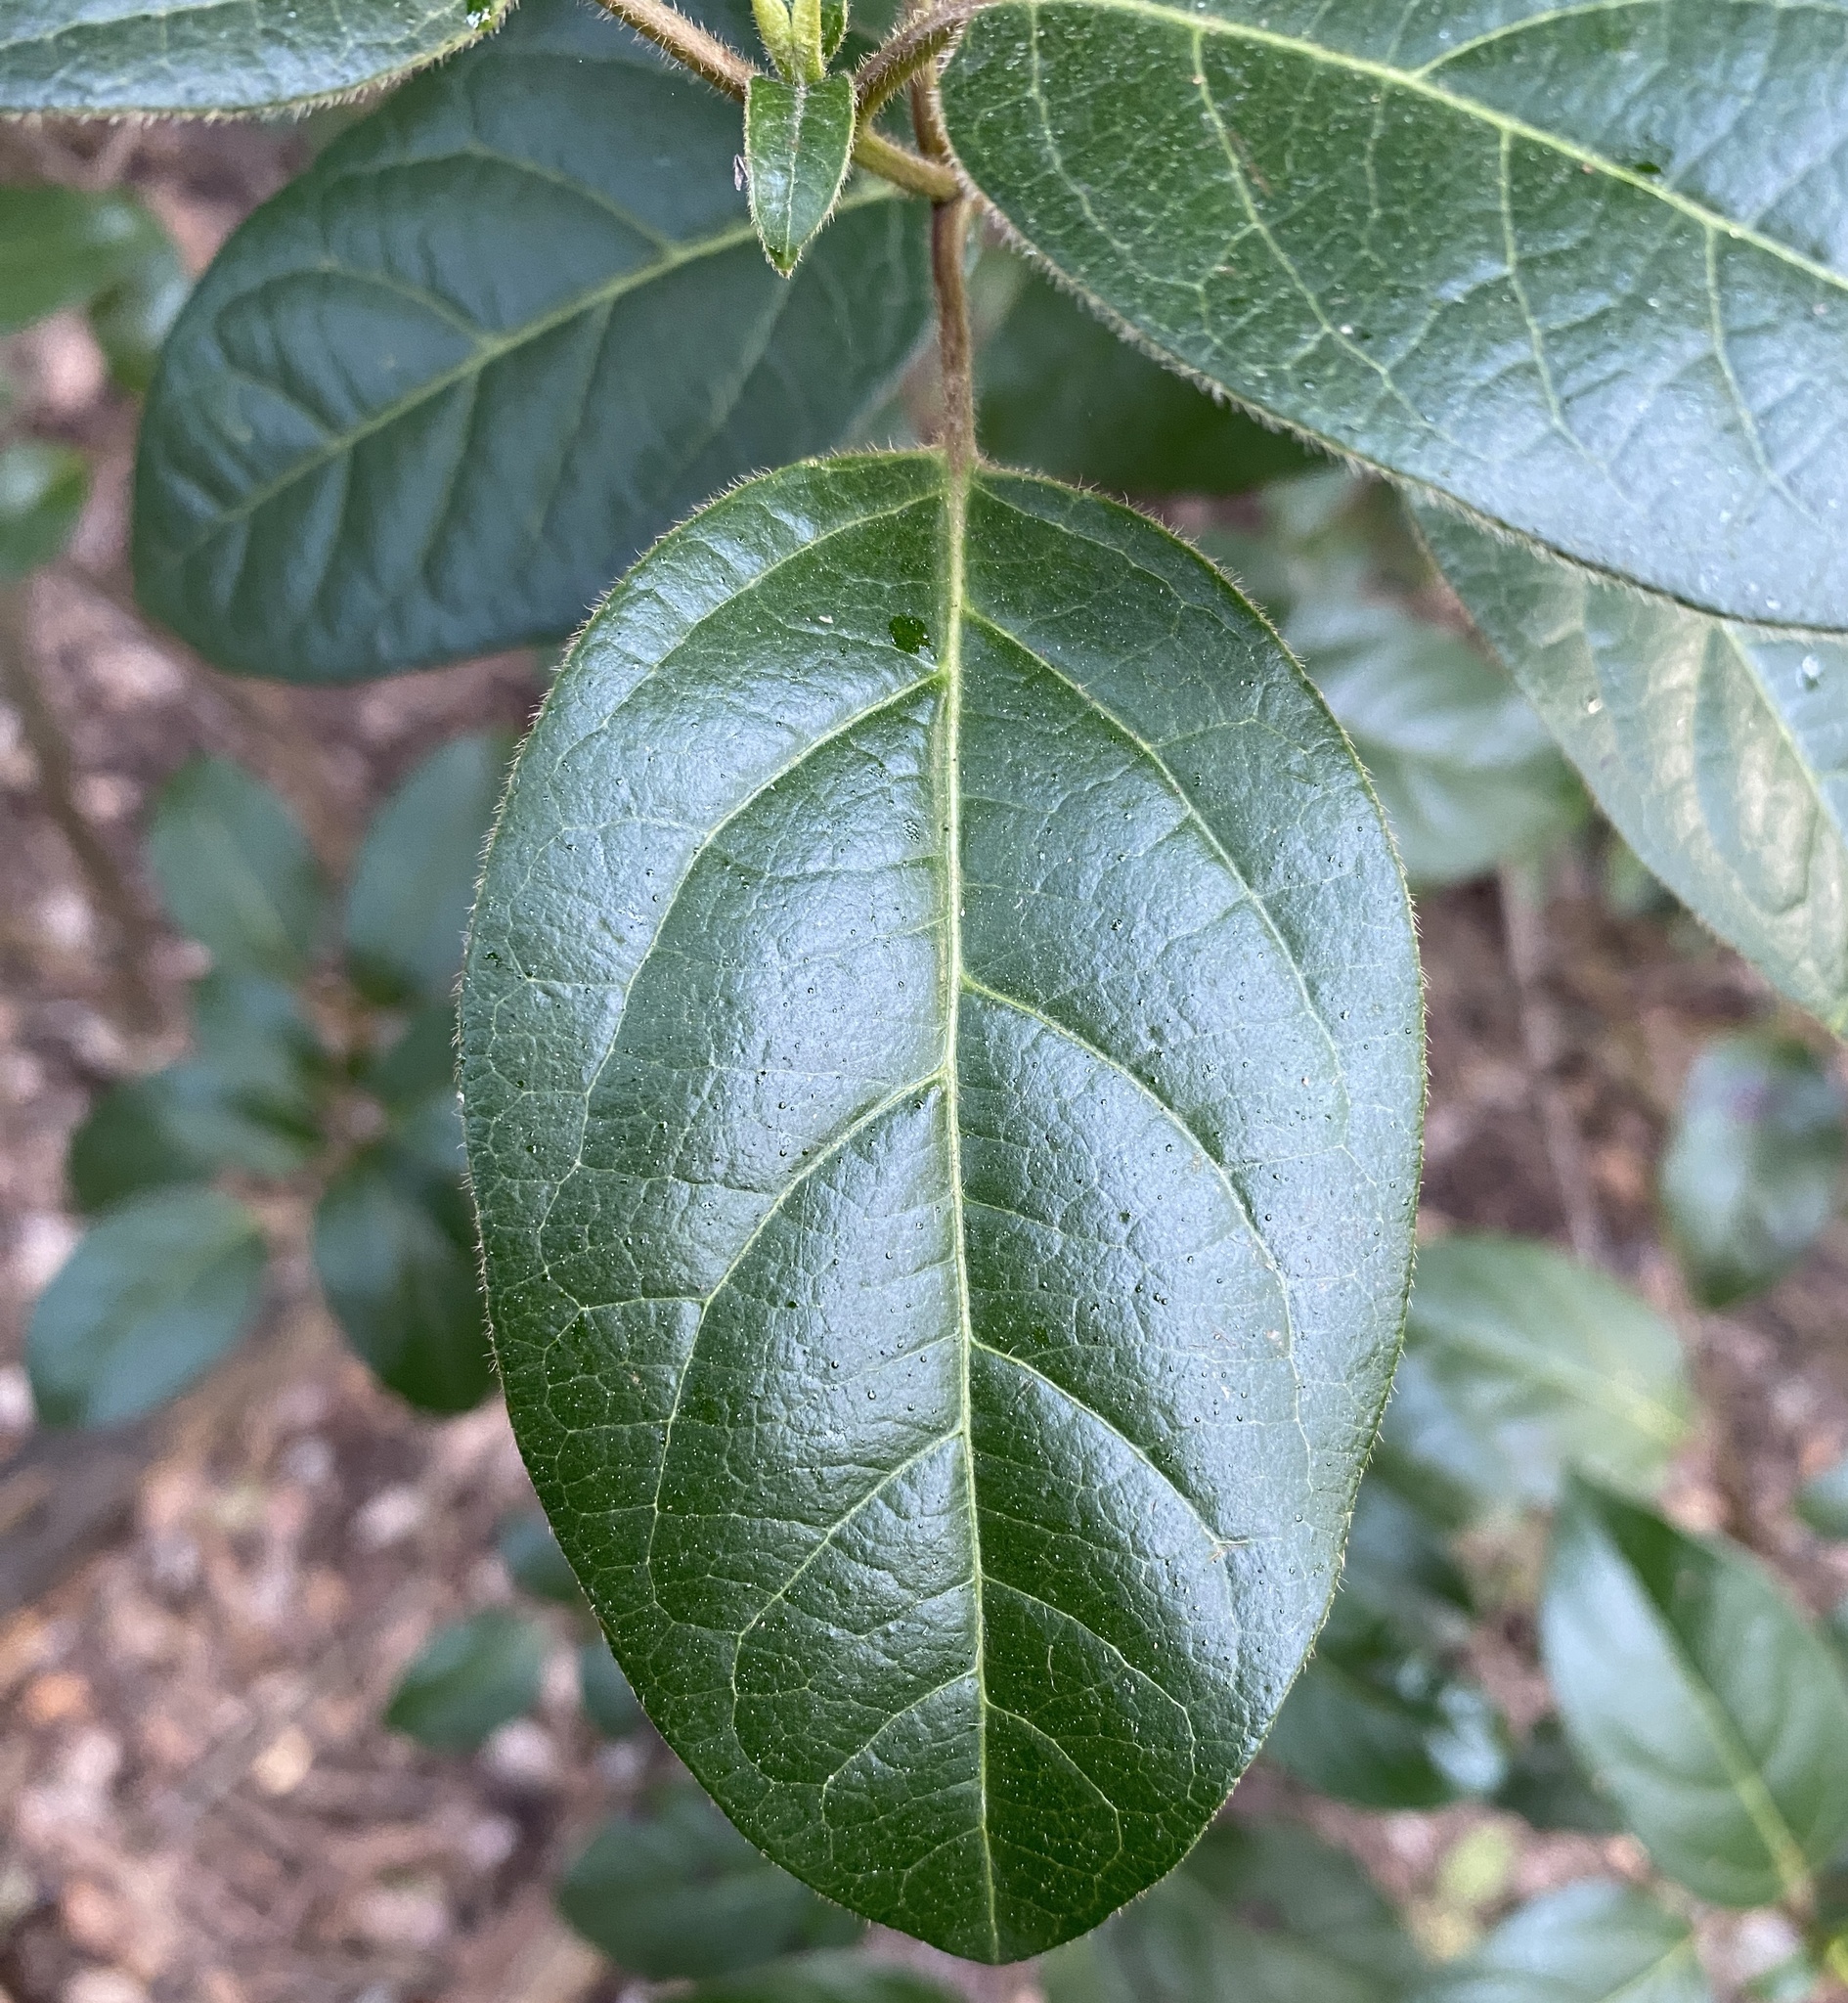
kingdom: Plantae
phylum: Tracheophyta
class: Magnoliopsida
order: Dipsacales
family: Viburnaceae
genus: Viburnum
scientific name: Viburnum tinus
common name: Laurustinus
